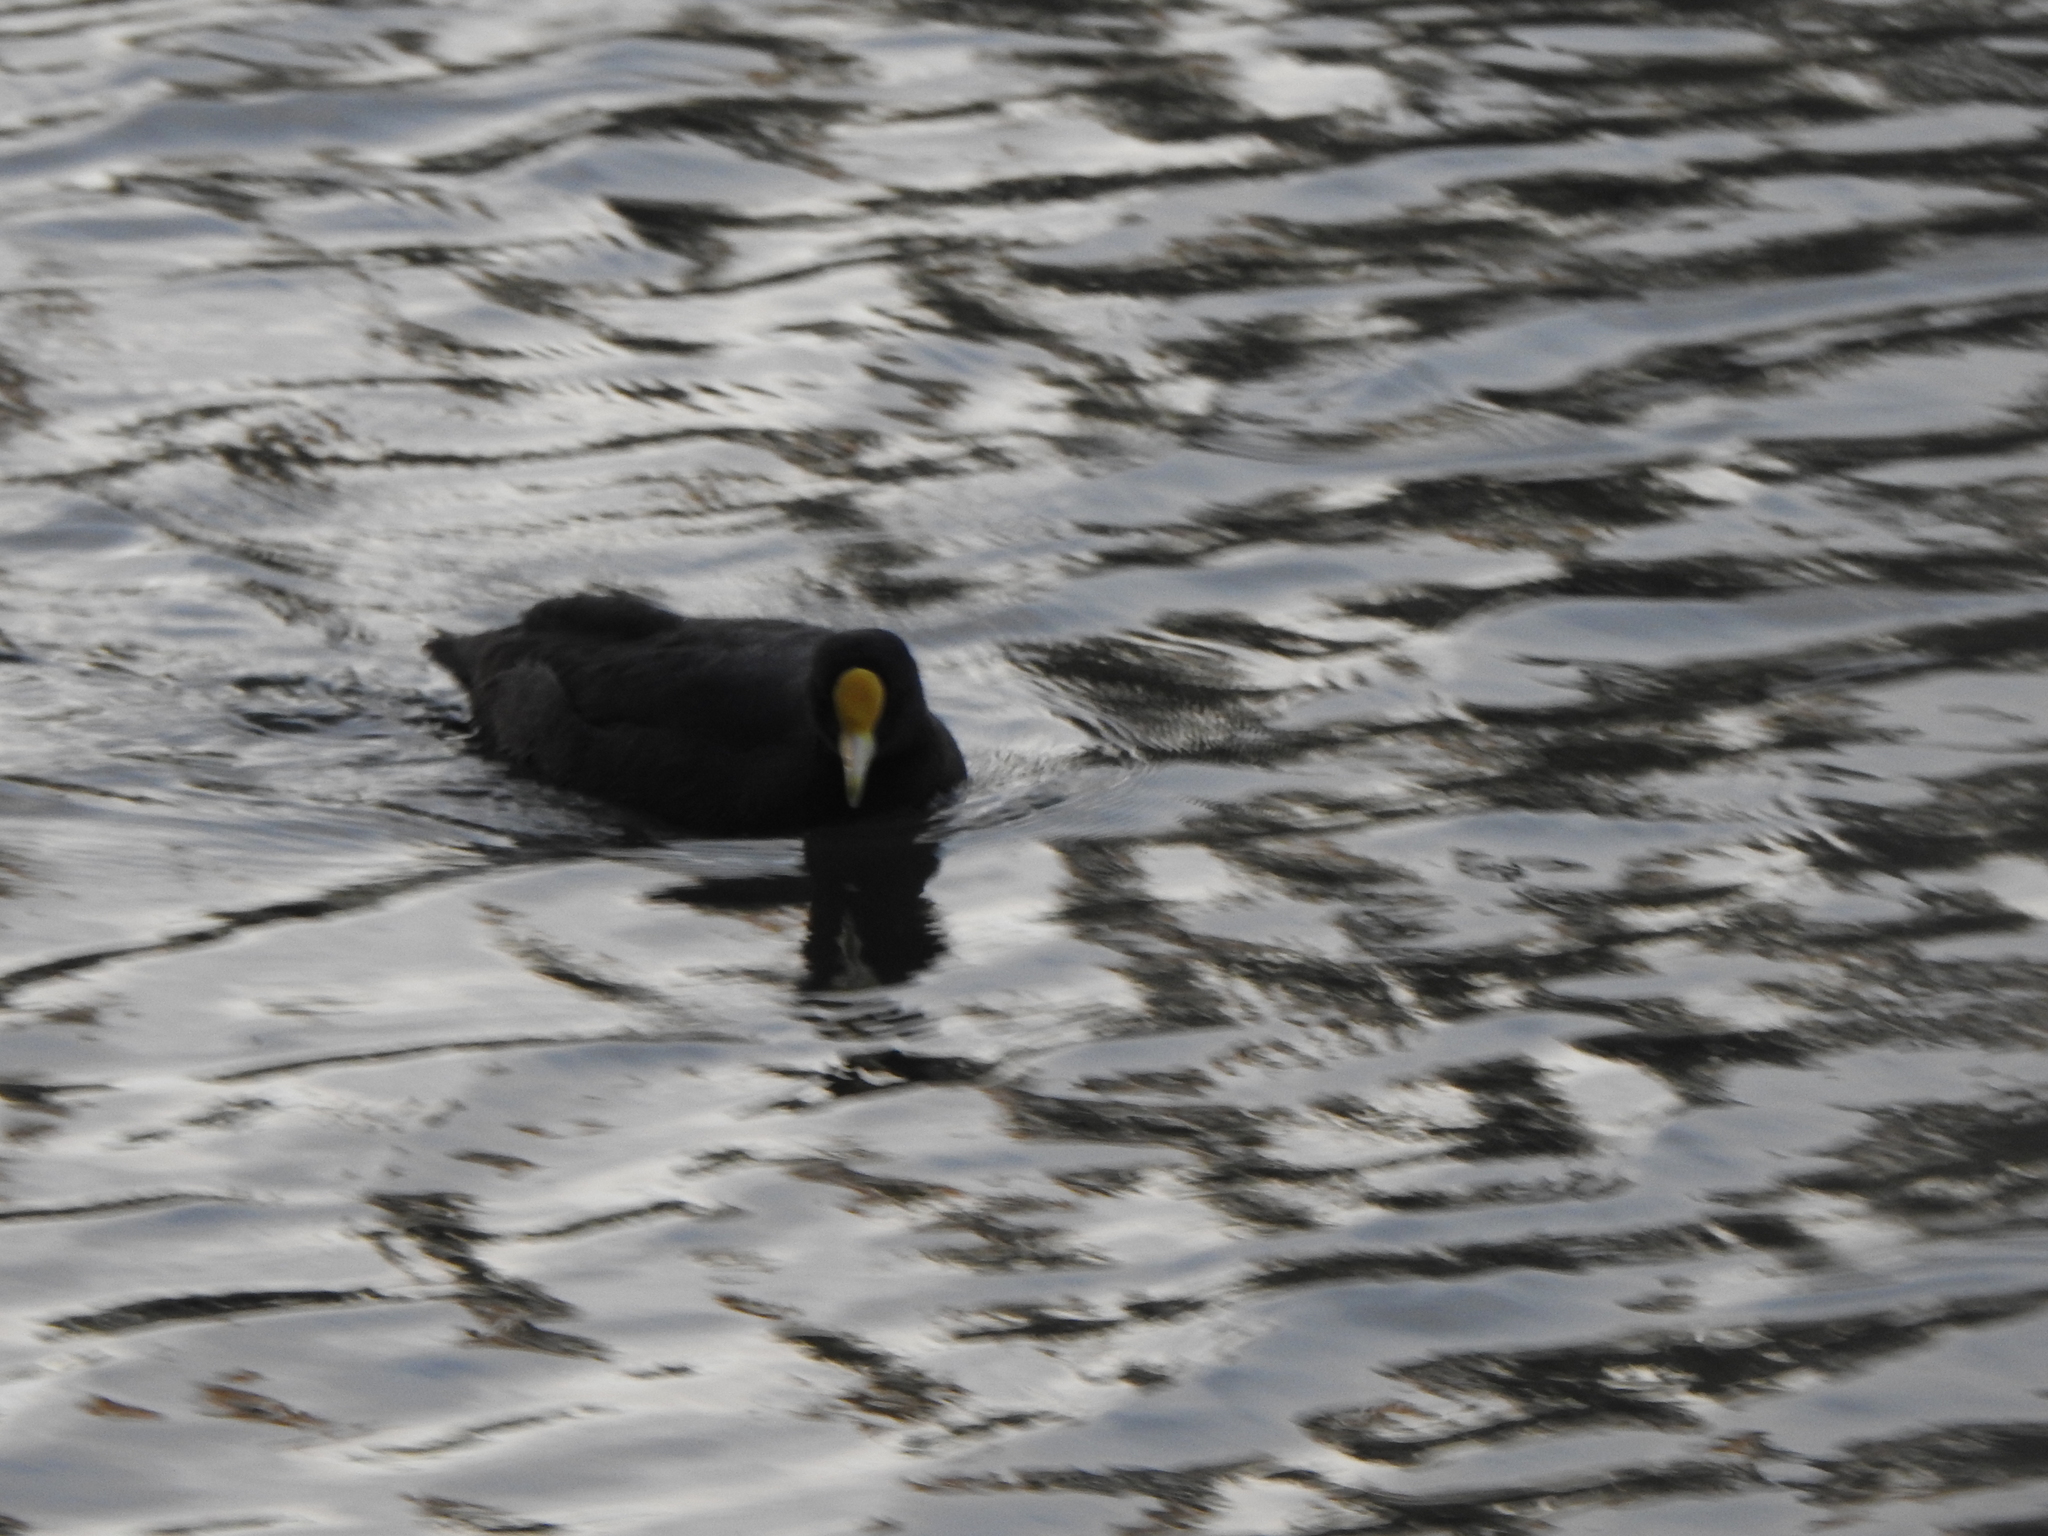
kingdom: Animalia
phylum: Chordata
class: Aves
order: Gruiformes
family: Rallidae
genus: Fulica
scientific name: Fulica leucoptera
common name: White-winged coot
